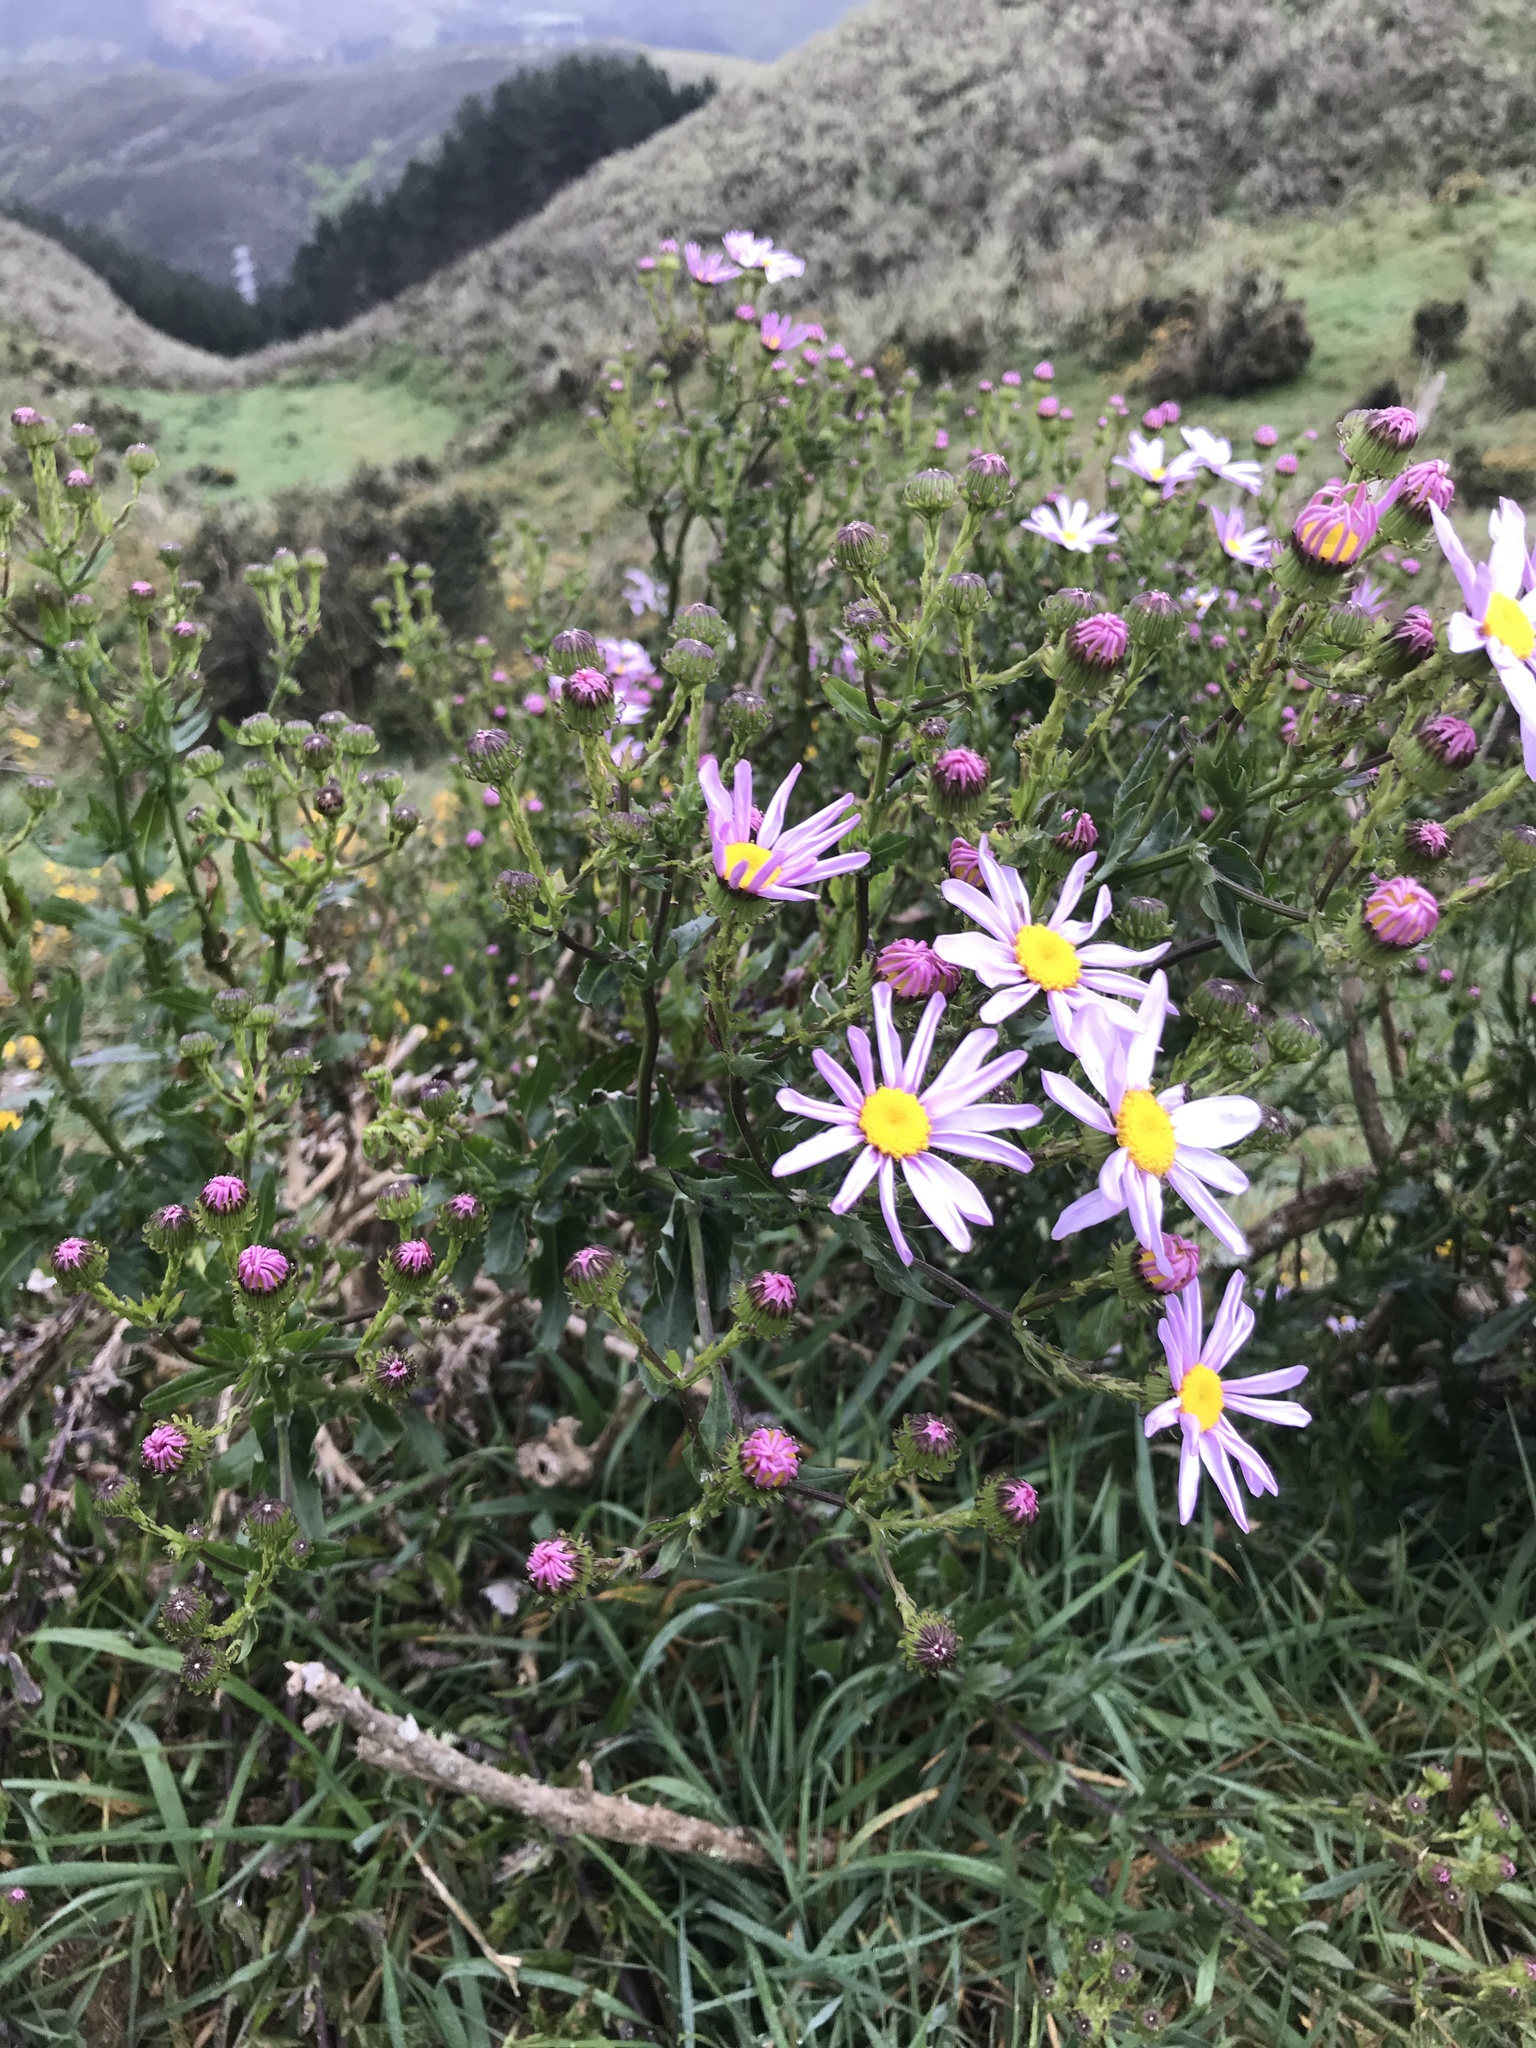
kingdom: Plantae
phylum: Tracheophyta
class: Magnoliopsida
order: Asterales
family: Asteraceae
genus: Senecio
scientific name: Senecio glastifolius
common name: Woad-leaved ragwort
